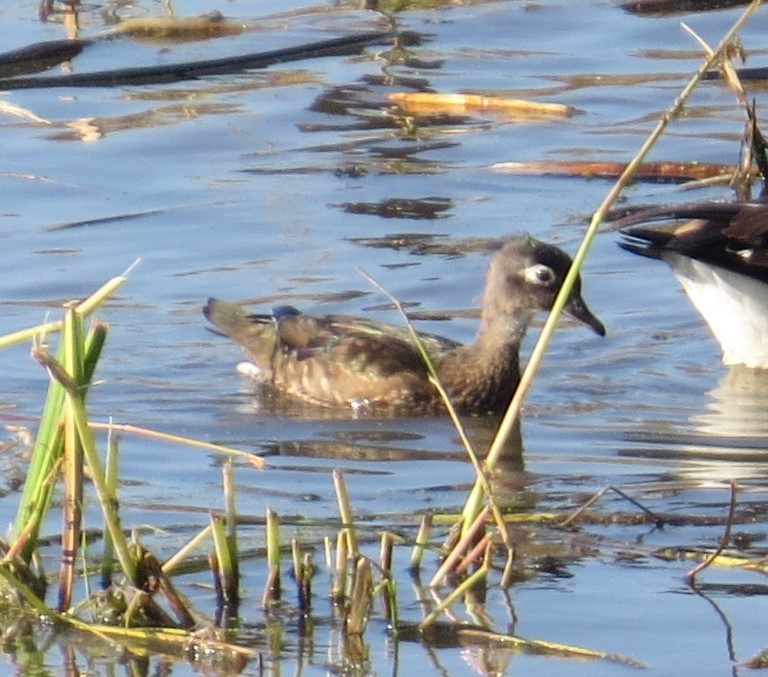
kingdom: Animalia
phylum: Chordata
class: Aves
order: Anseriformes
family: Anatidae
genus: Aix
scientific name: Aix sponsa
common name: Wood duck
